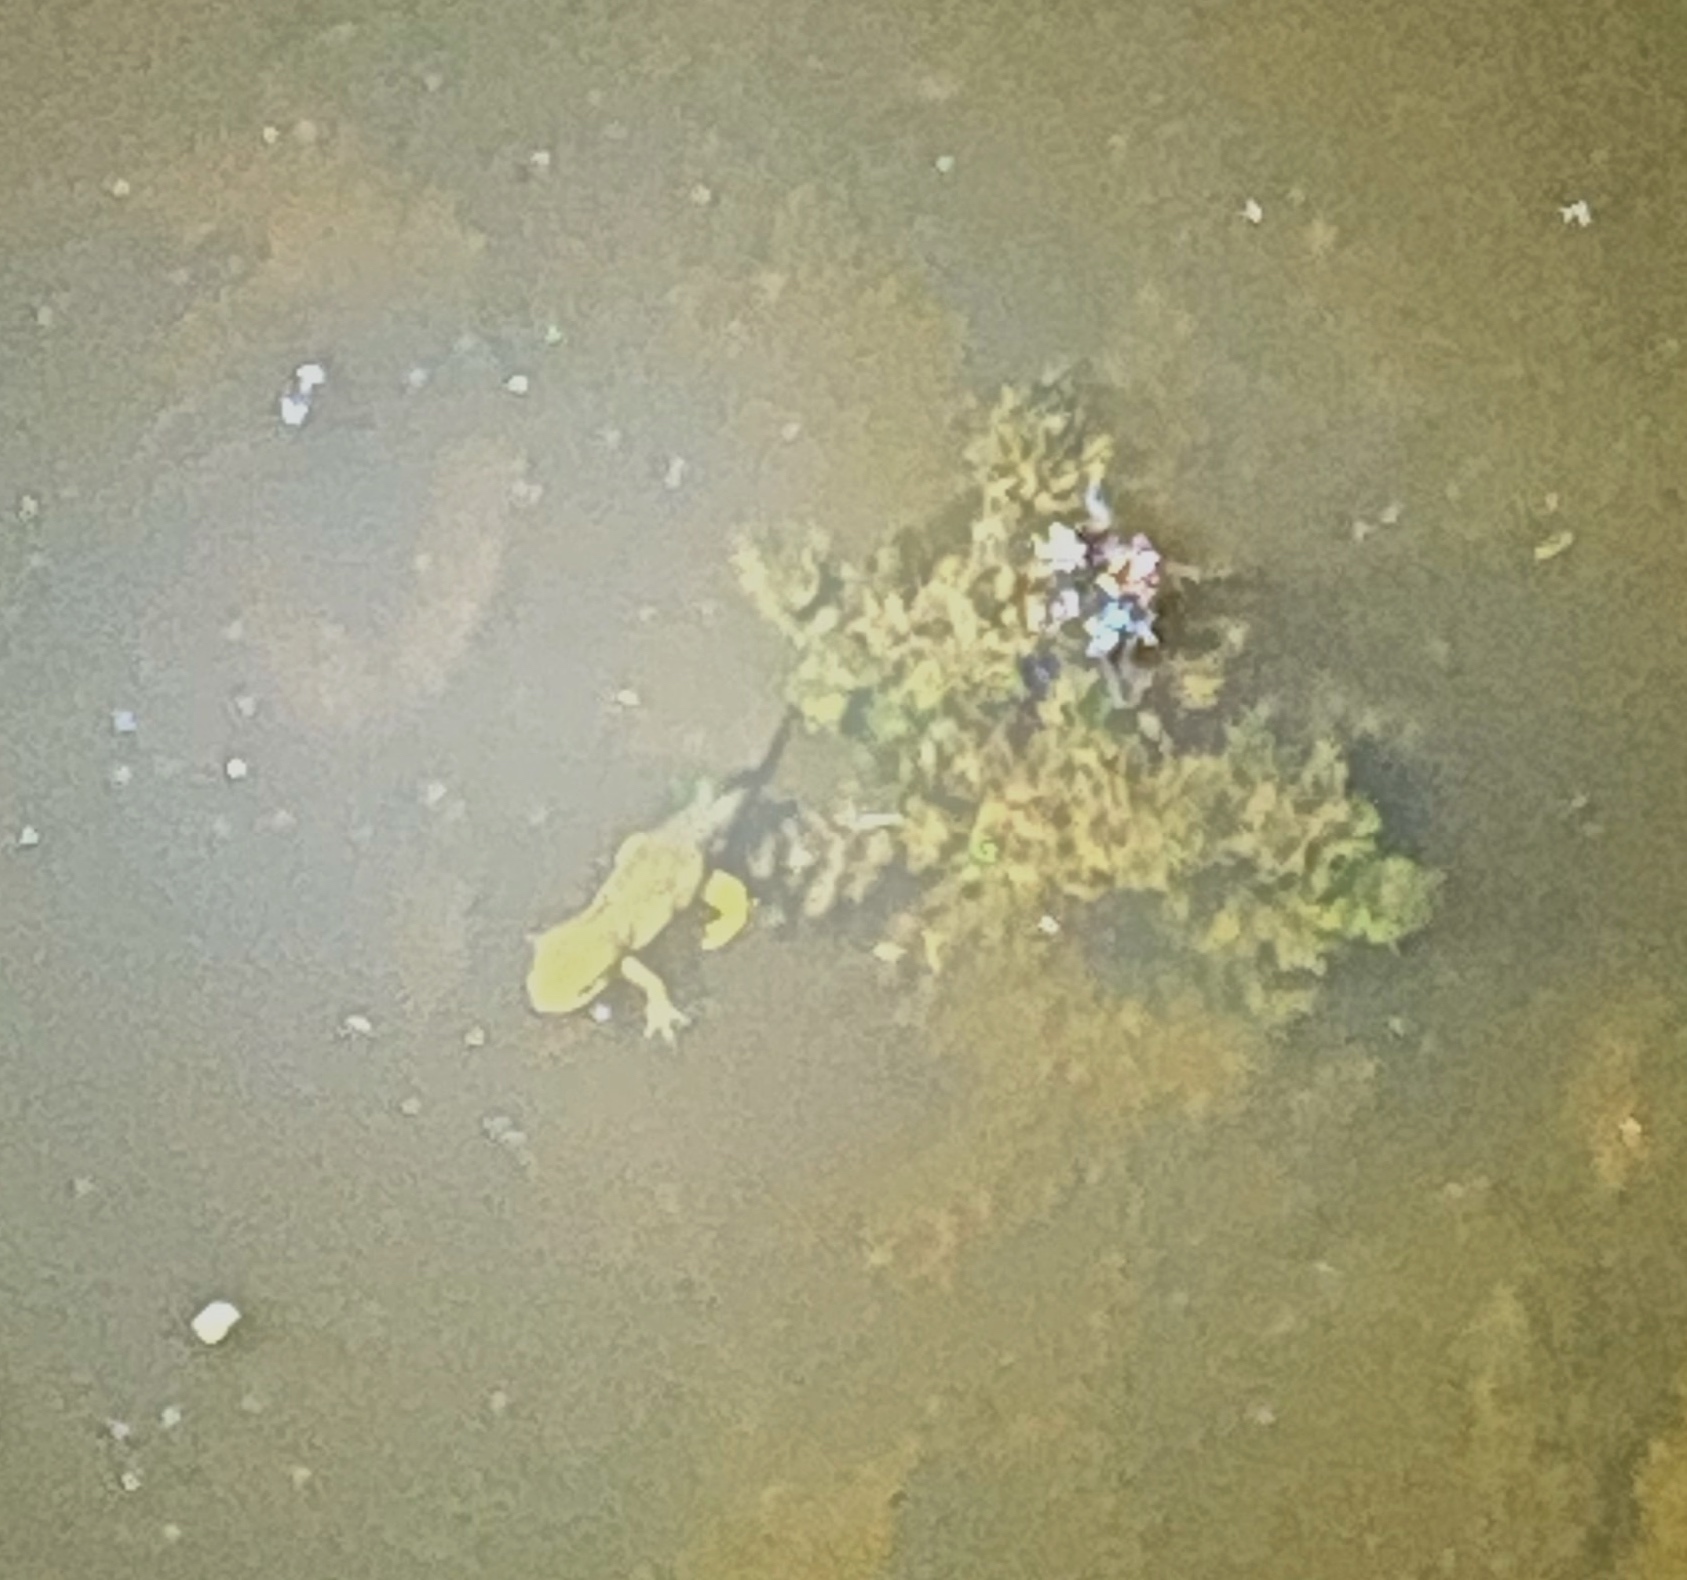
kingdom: Animalia
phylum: Chordata
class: Amphibia
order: Caudata
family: Salamandridae
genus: Notophthalmus
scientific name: Notophthalmus viridescens
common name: Eastern newt
